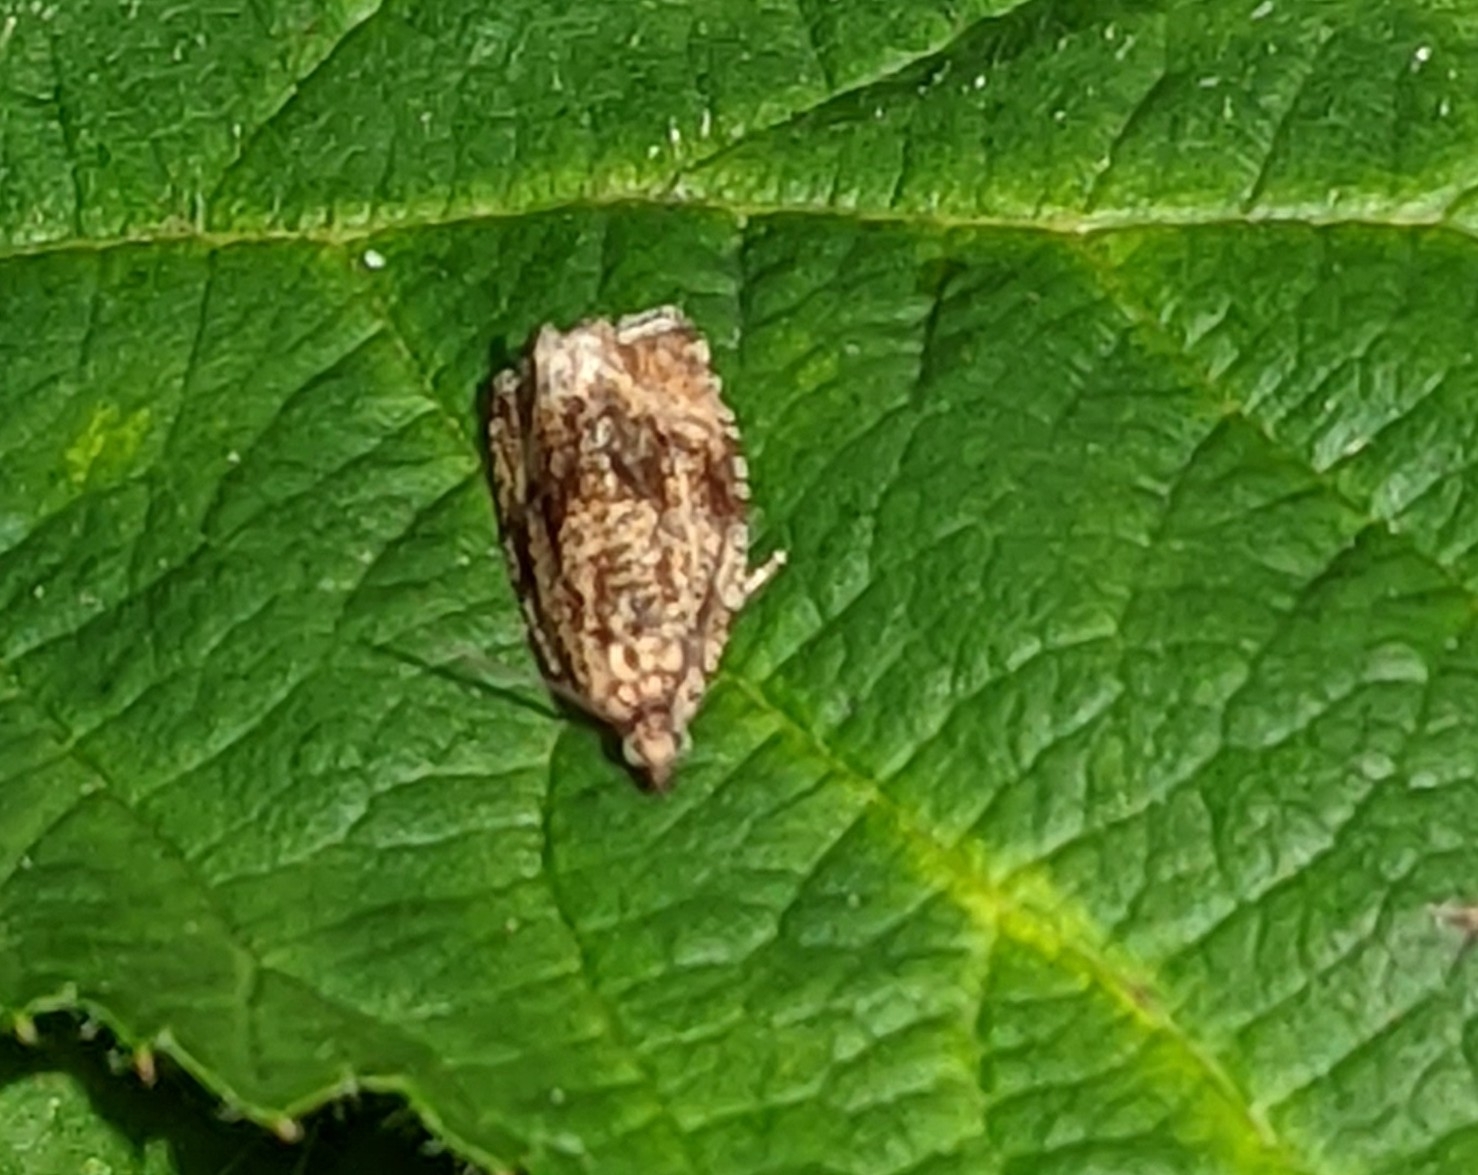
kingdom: Animalia
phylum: Arthropoda
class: Insecta
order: Lepidoptera
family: Tortricidae
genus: Syricoris
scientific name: Syricoris lacunana
